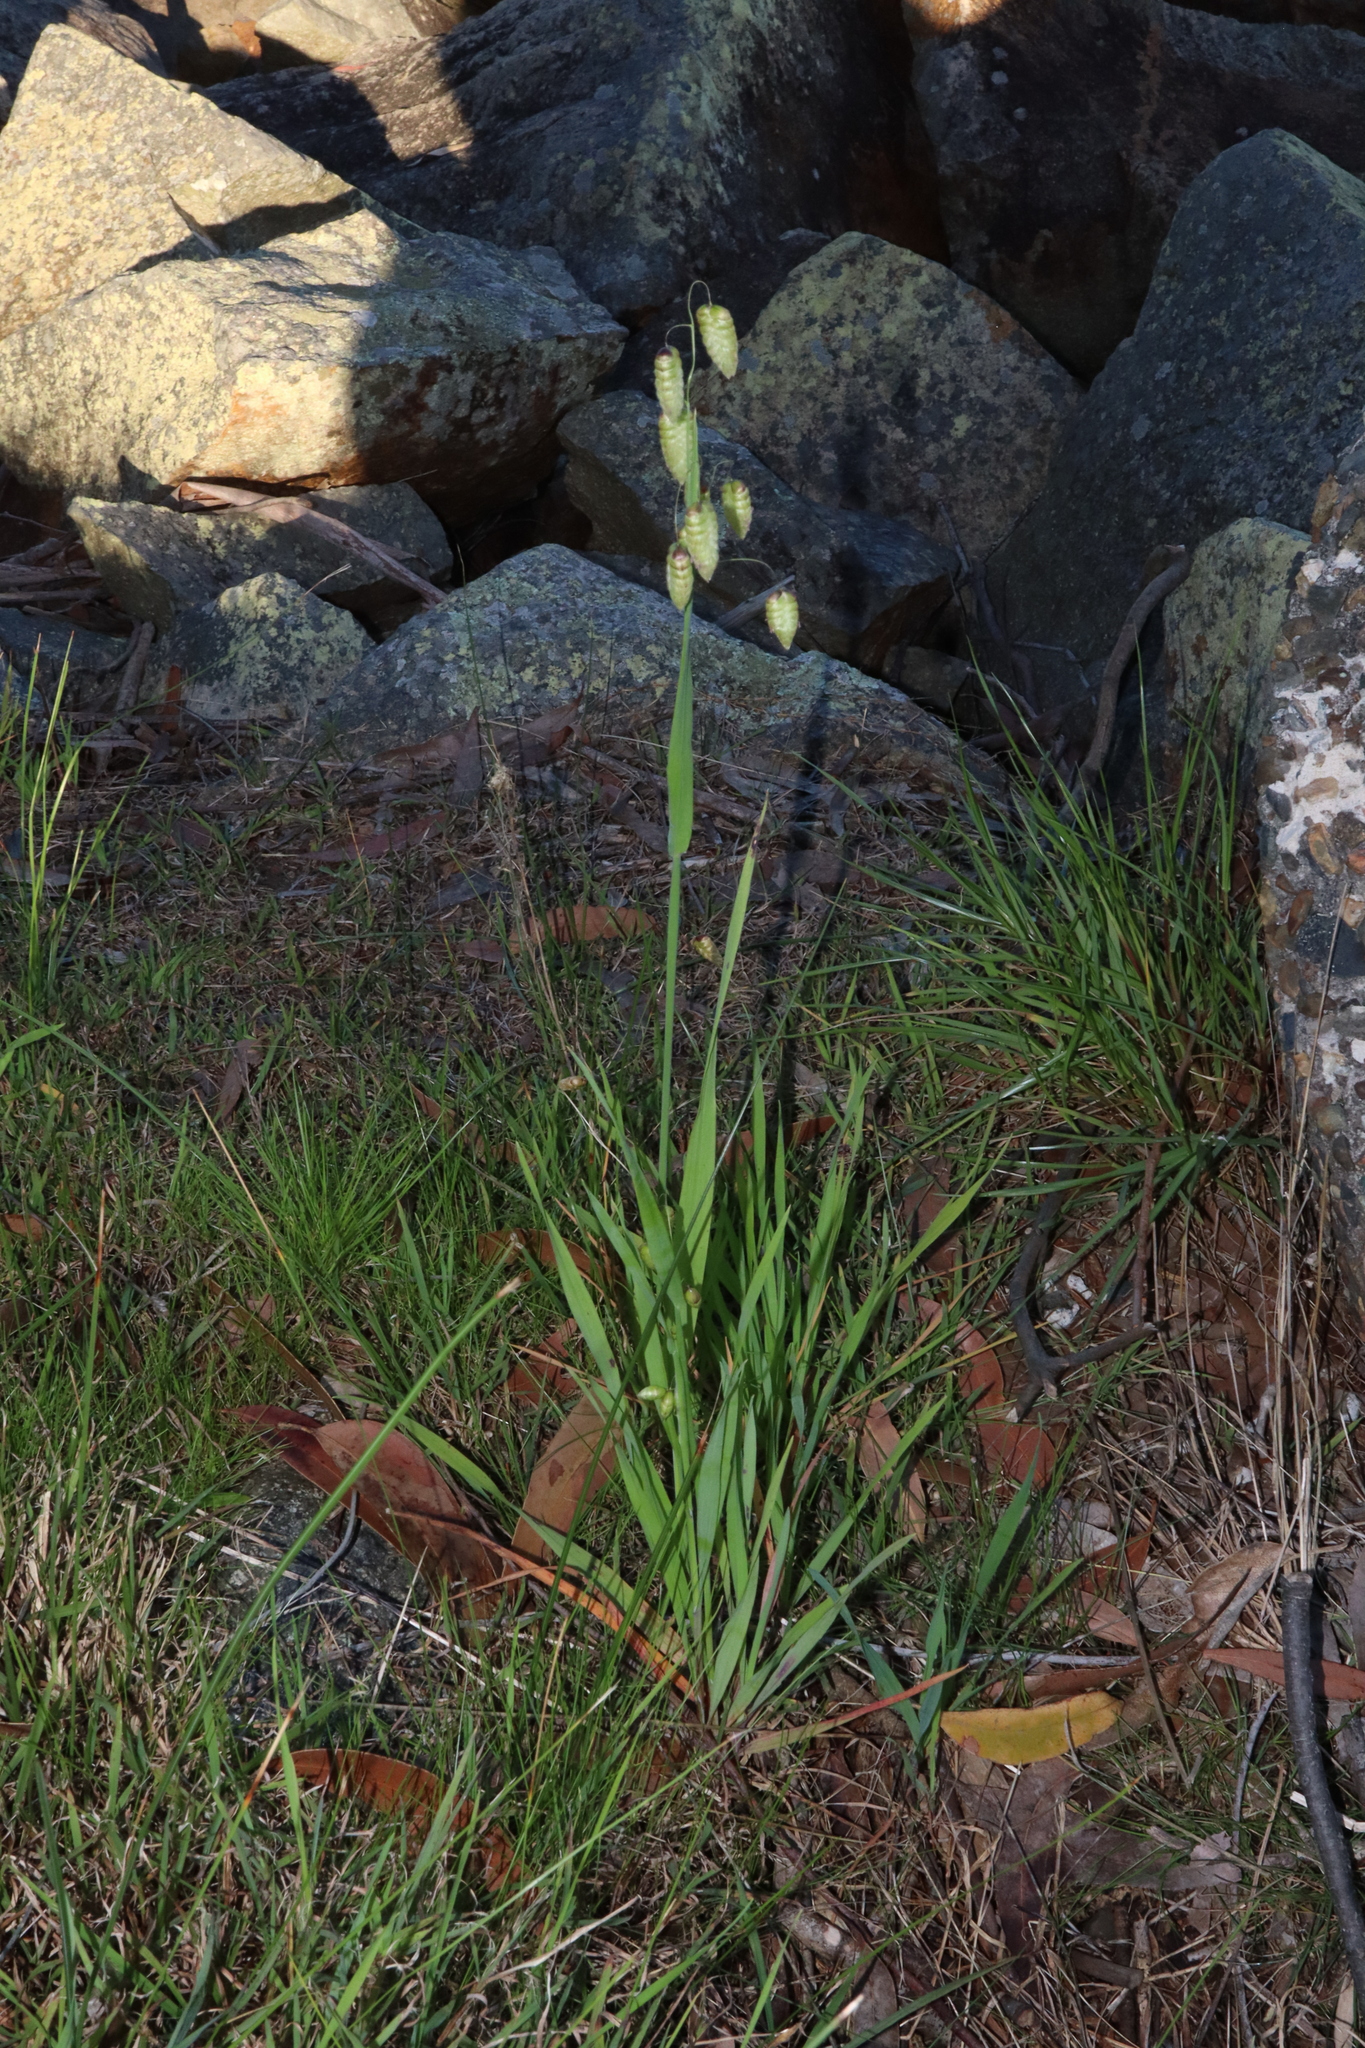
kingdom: Plantae
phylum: Tracheophyta
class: Liliopsida
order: Poales
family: Poaceae
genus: Briza
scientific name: Briza maxima
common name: Big quakinggrass
